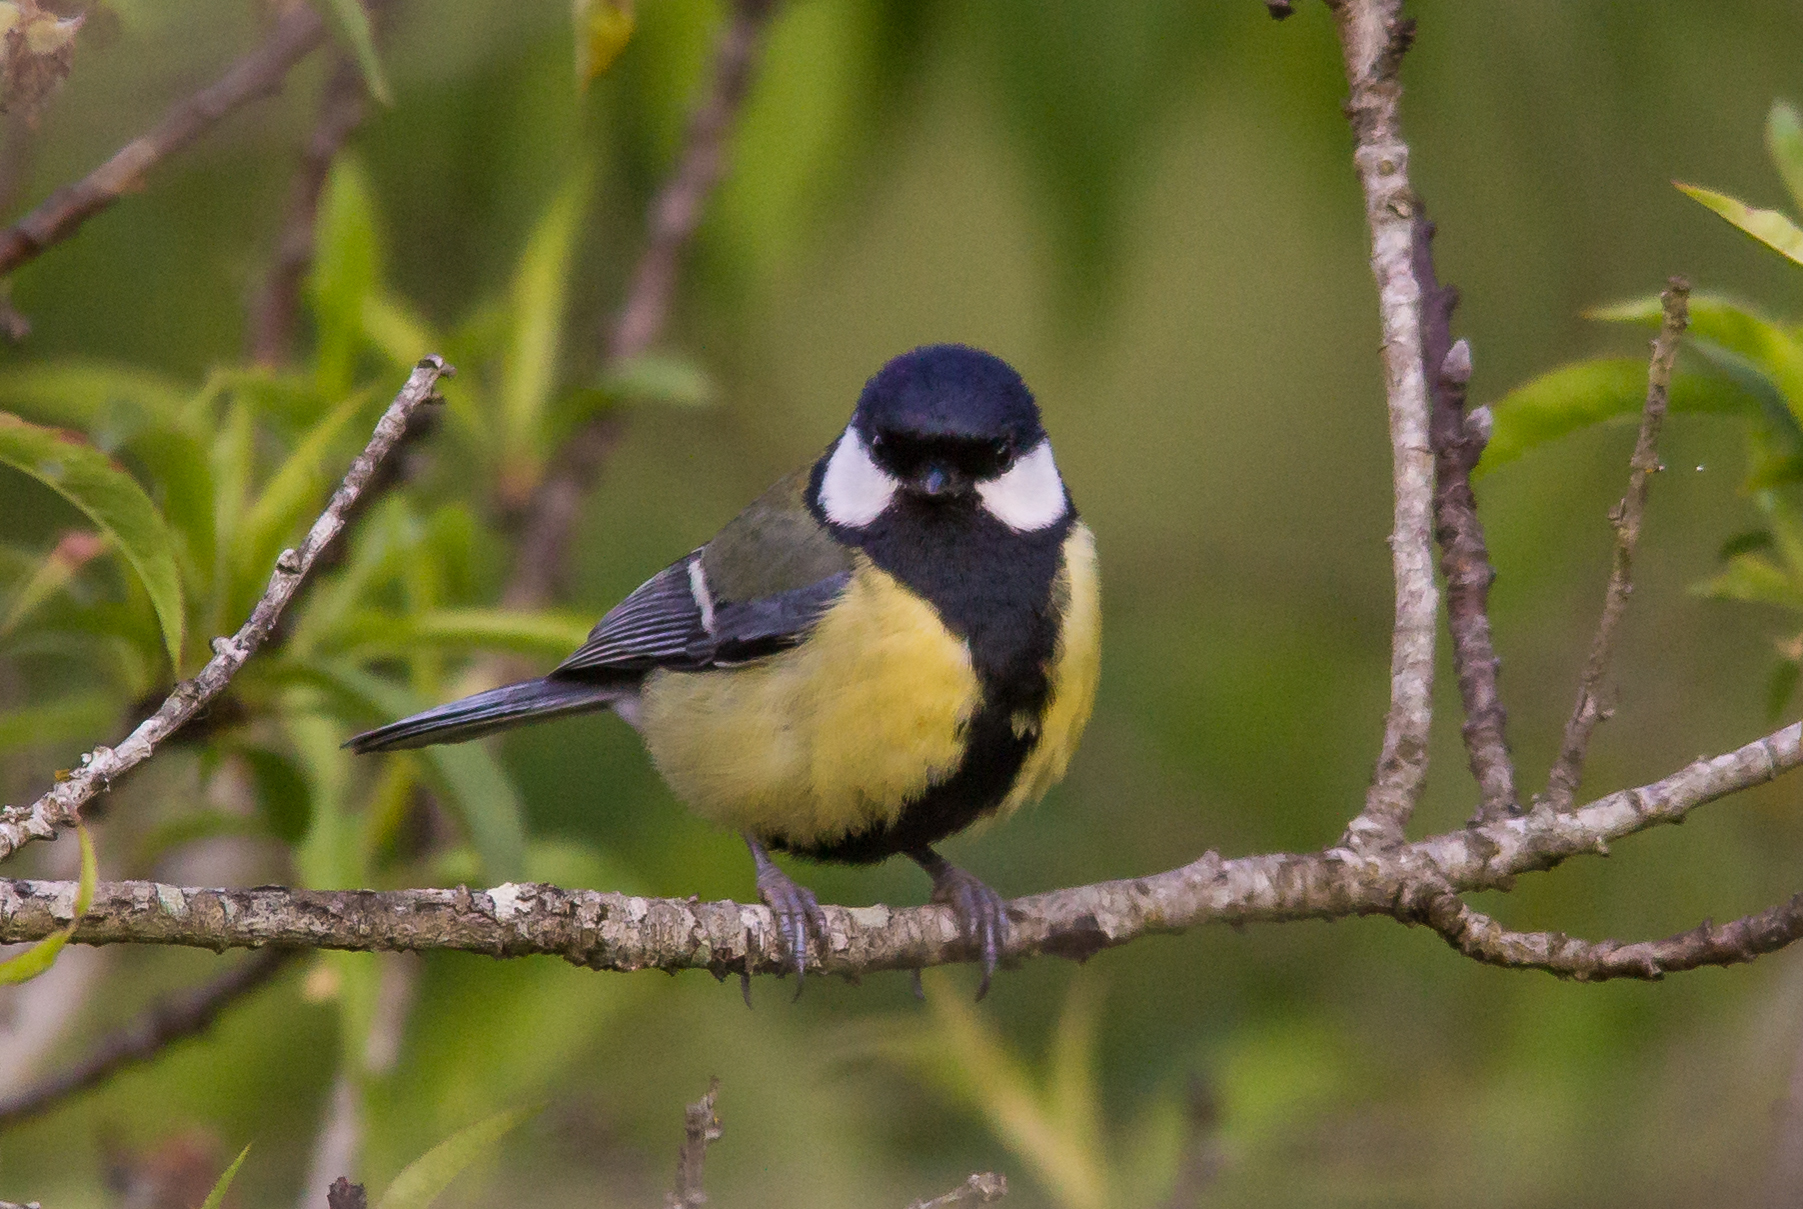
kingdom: Animalia
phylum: Chordata
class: Aves
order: Passeriformes
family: Paridae
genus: Parus
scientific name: Parus major
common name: Great tit
